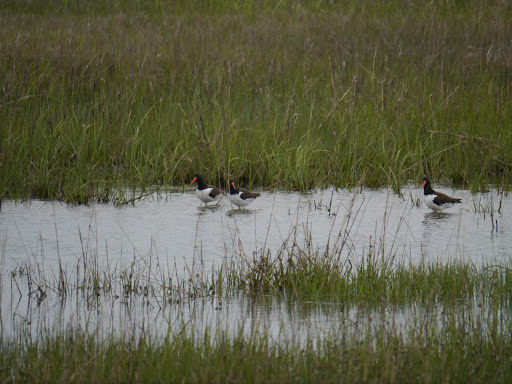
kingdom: Animalia
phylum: Chordata
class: Aves
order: Charadriiformes
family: Haematopodidae
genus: Haematopus
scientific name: Haematopus palliatus
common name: American oystercatcher
